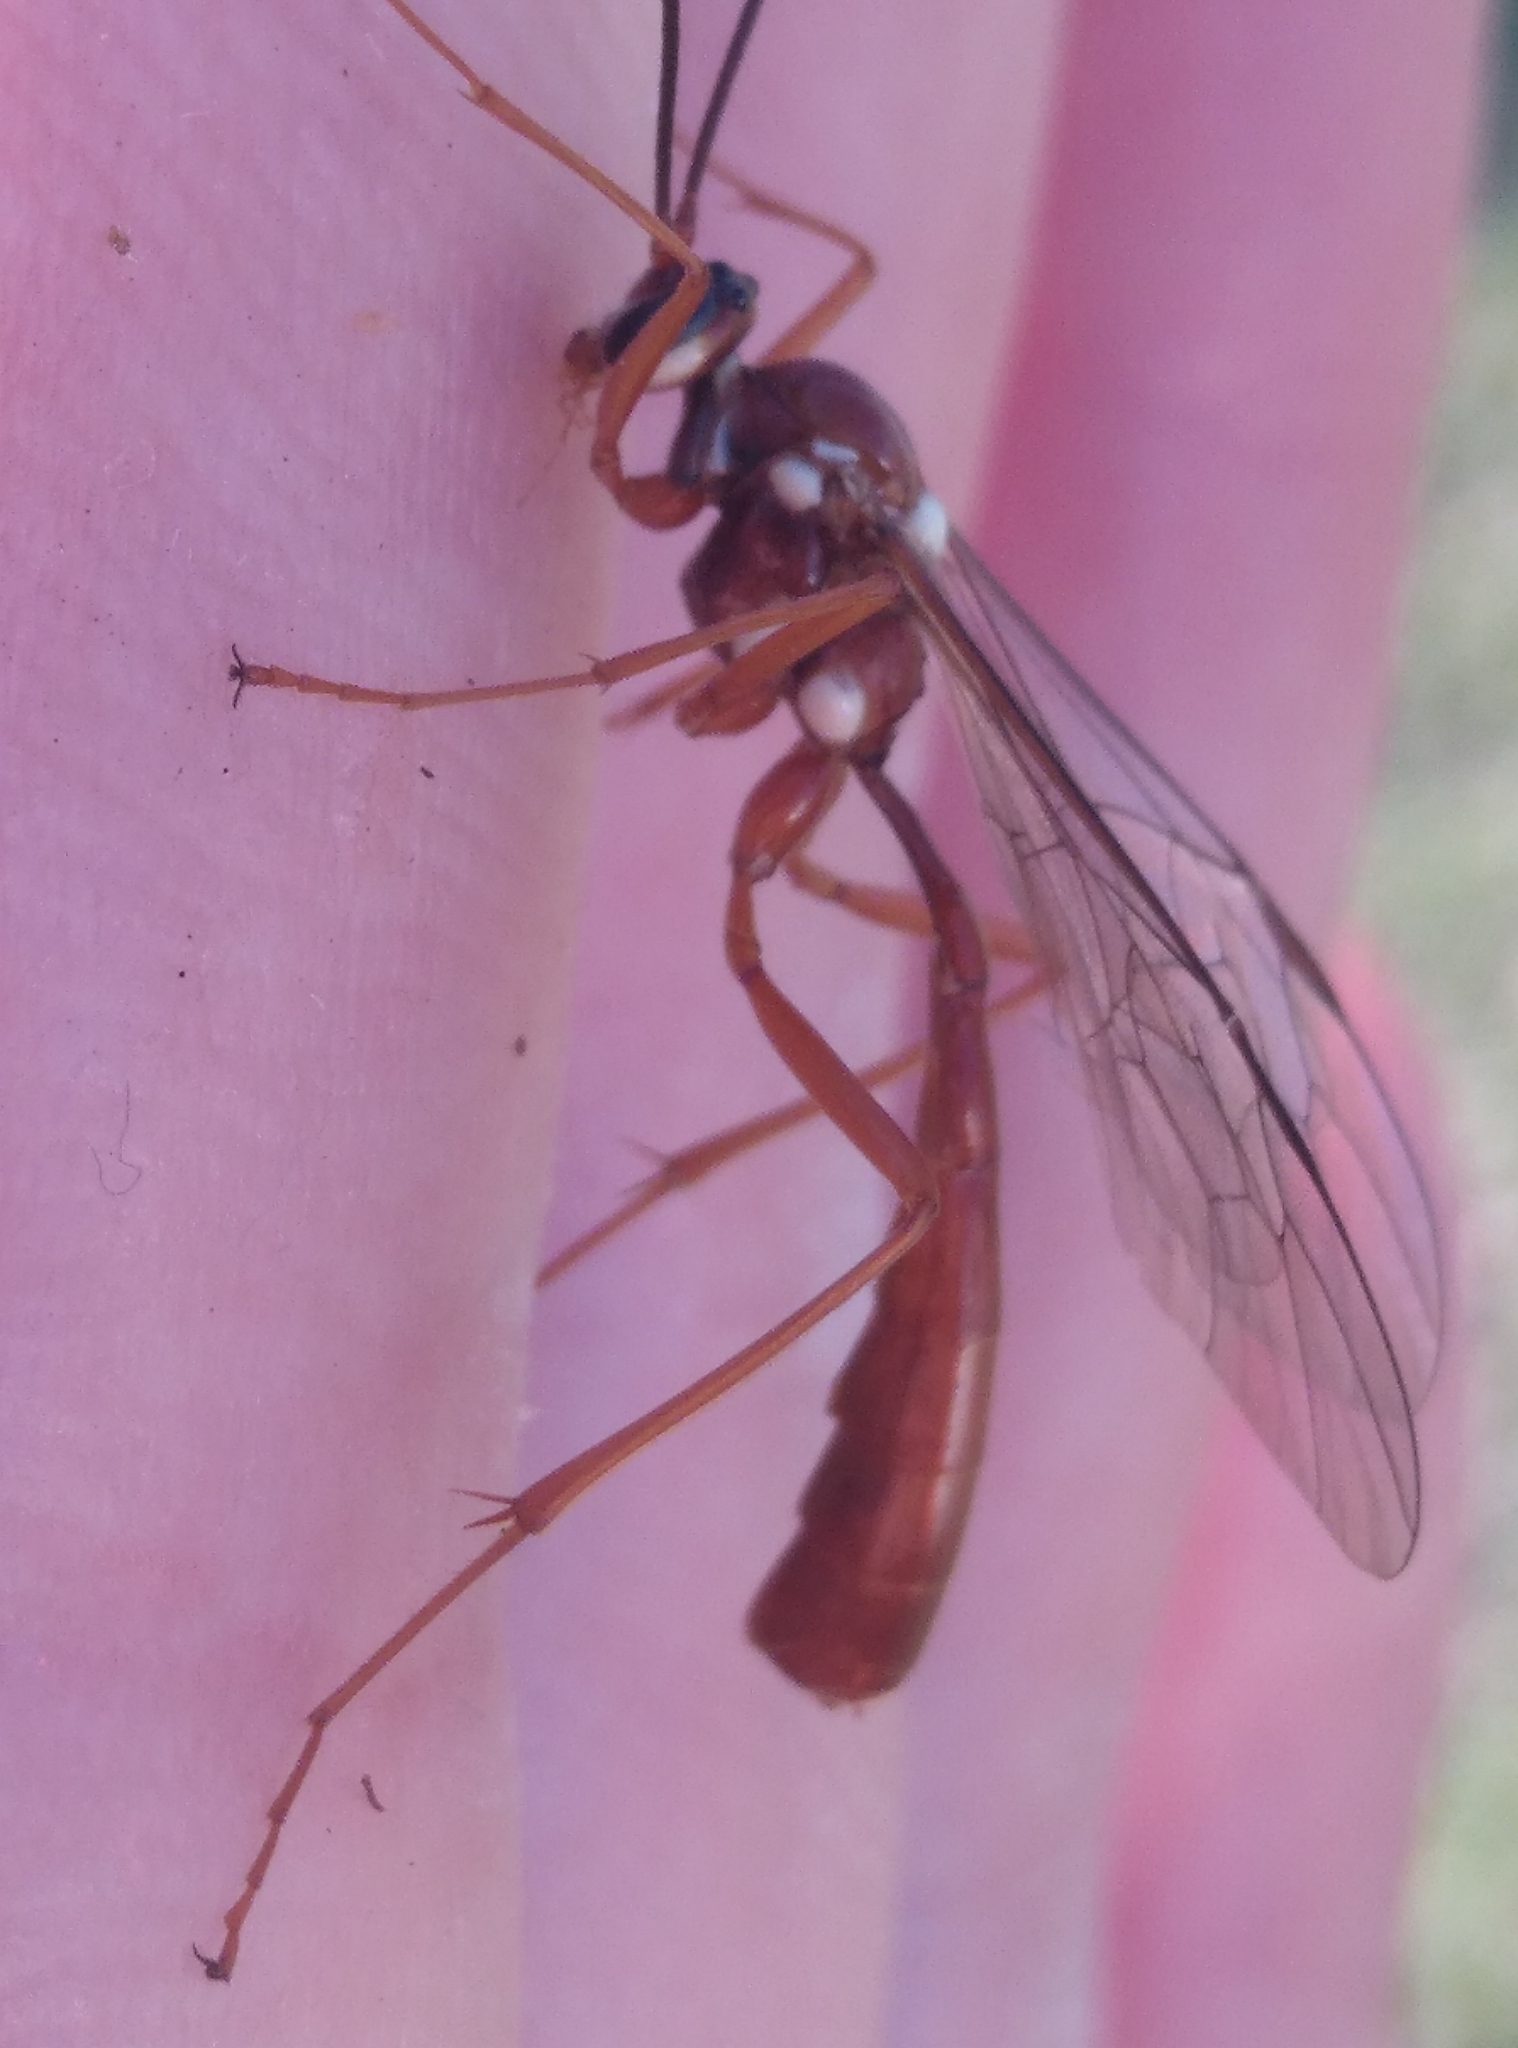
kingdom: Animalia
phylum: Arthropoda
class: Insecta
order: Hymenoptera
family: Ichneumonidae
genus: Ophion
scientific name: Ophion peregrinus
